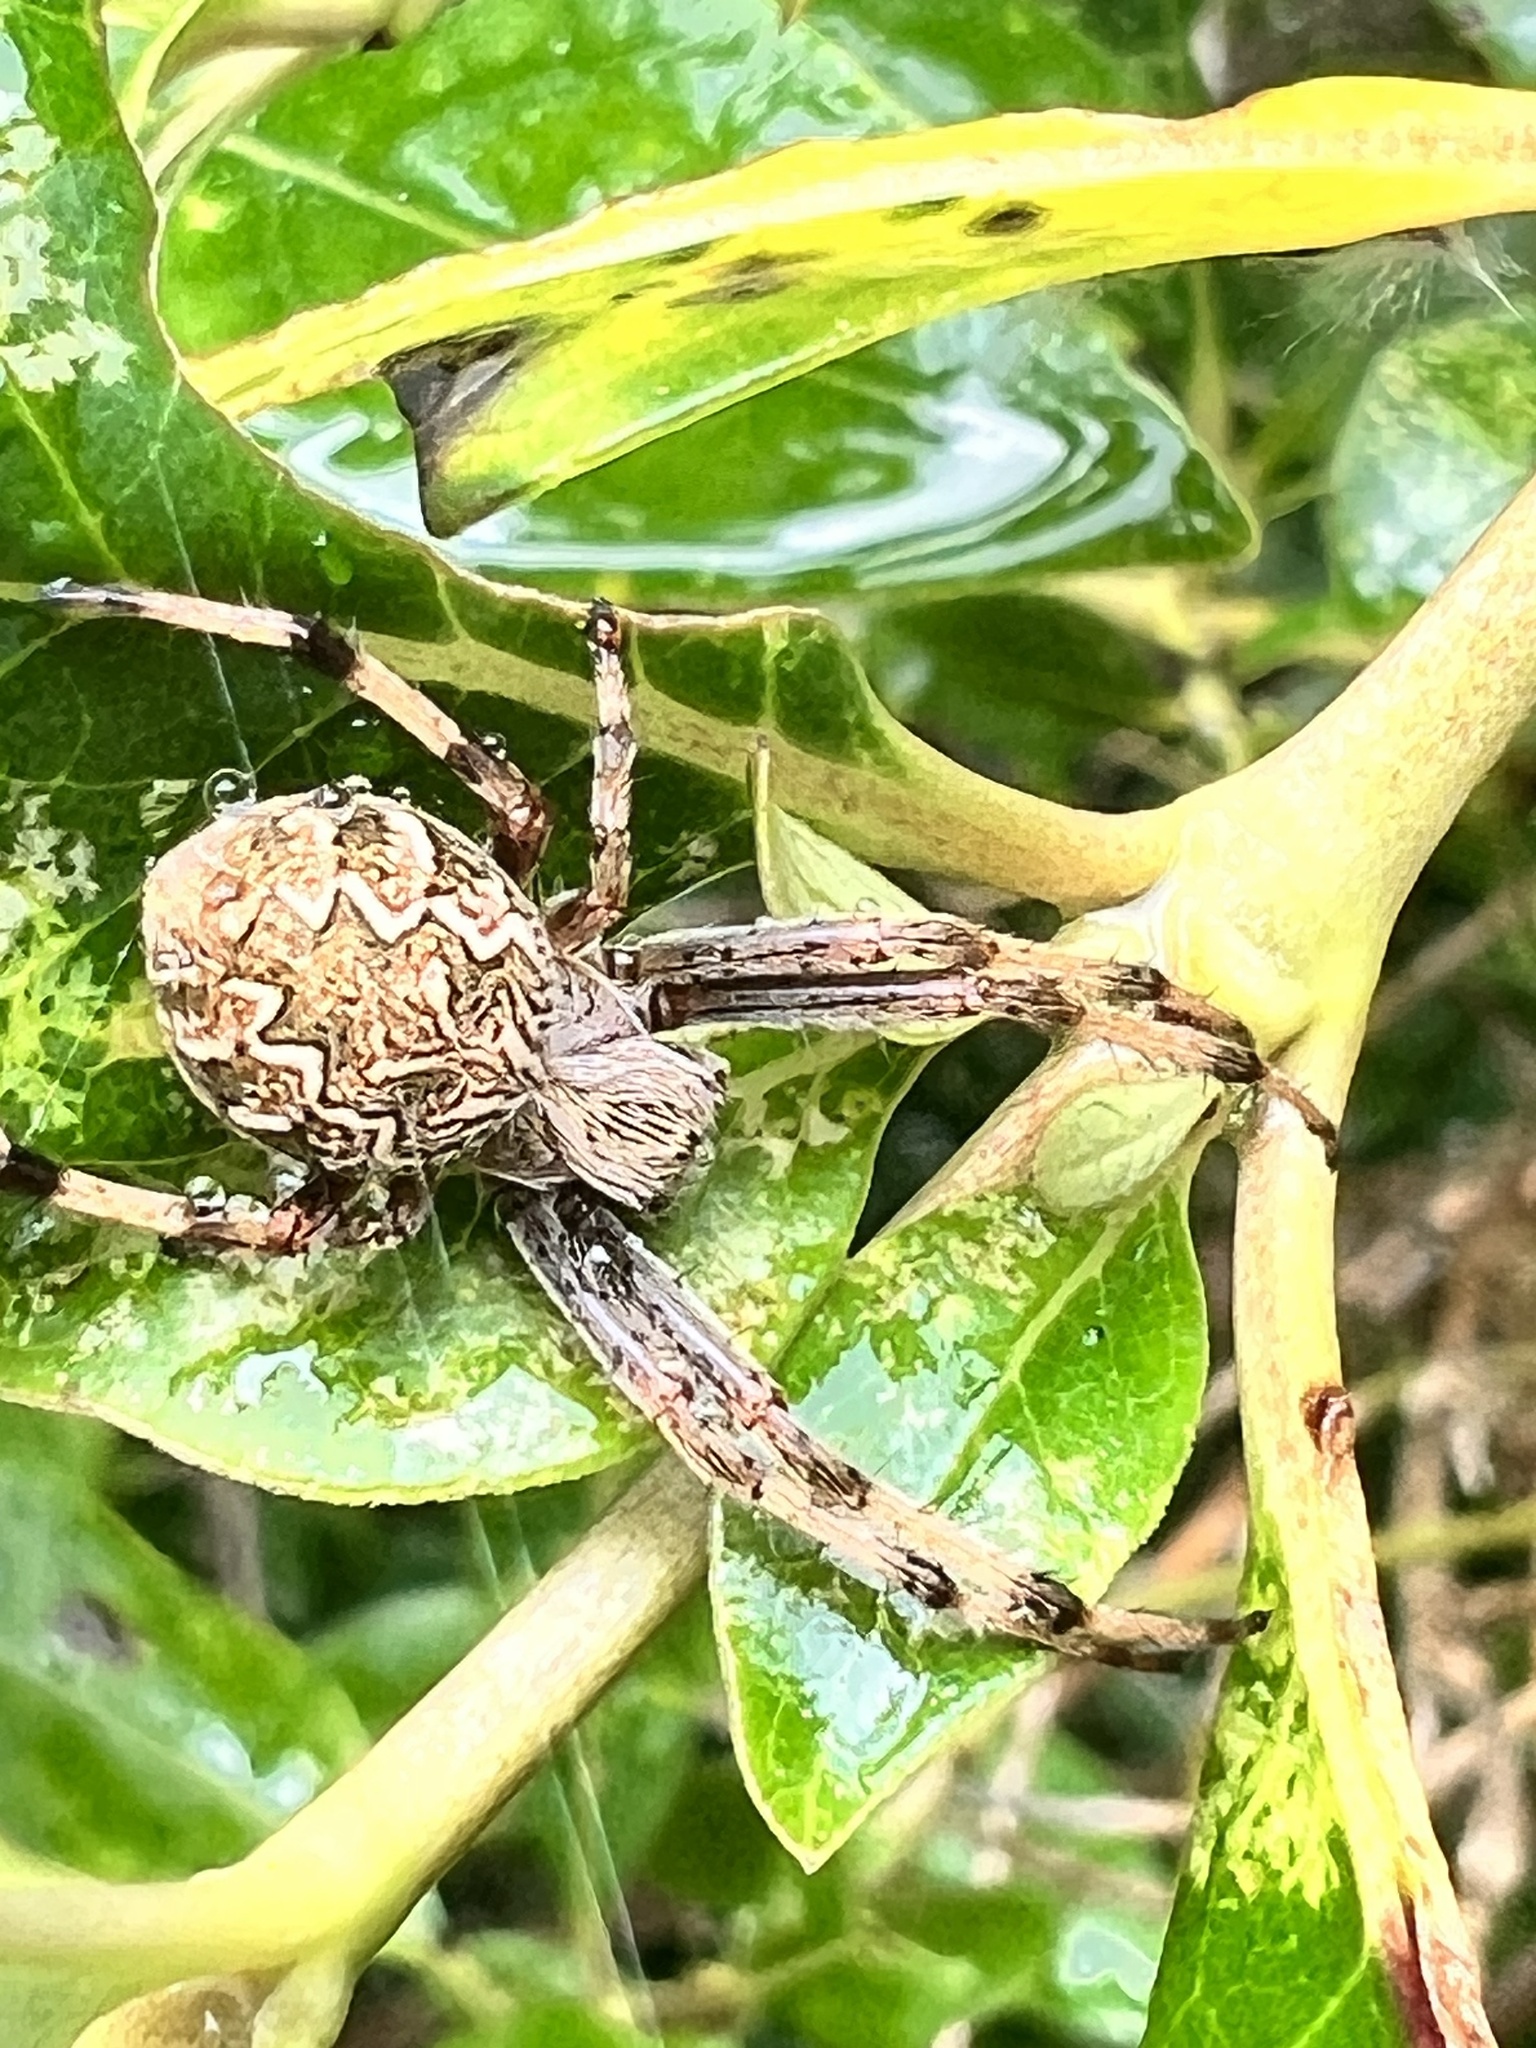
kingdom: Animalia
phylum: Arthropoda
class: Arachnida
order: Araneae
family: Araneidae
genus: Salsa
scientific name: Salsa fuliginata
